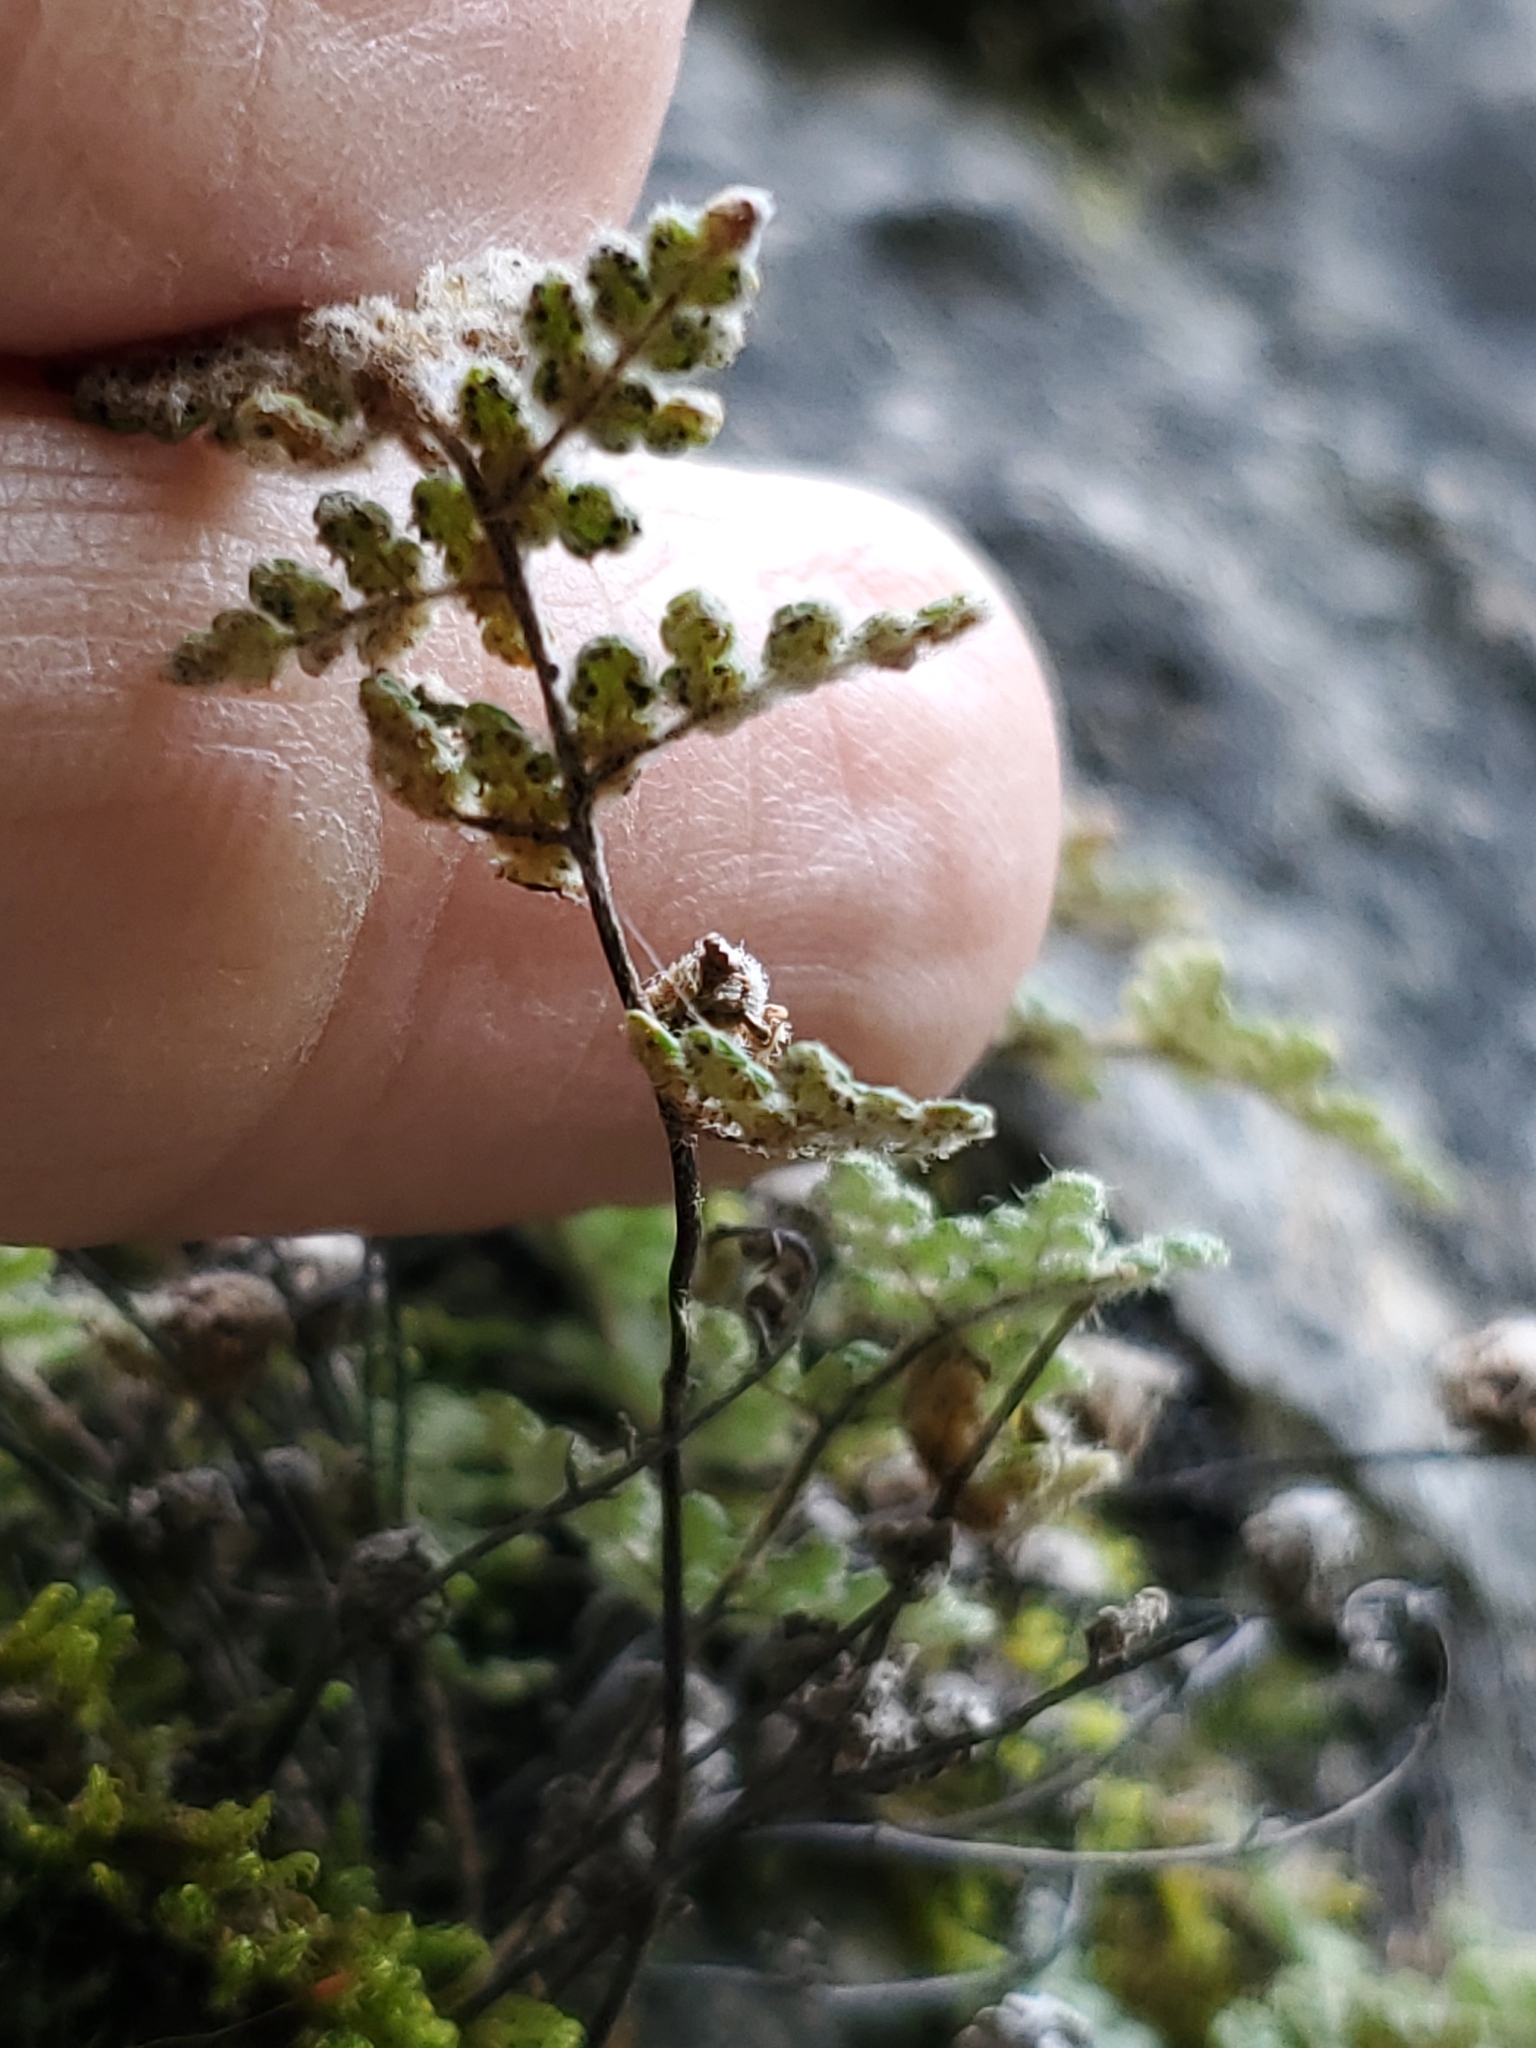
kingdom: Plantae
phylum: Tracheophyta
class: Polypodiopsida
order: Polypodiales
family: Pteridaceae
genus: Myriopteris
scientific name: Myriopteris gracilis
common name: Fee's lip fern
